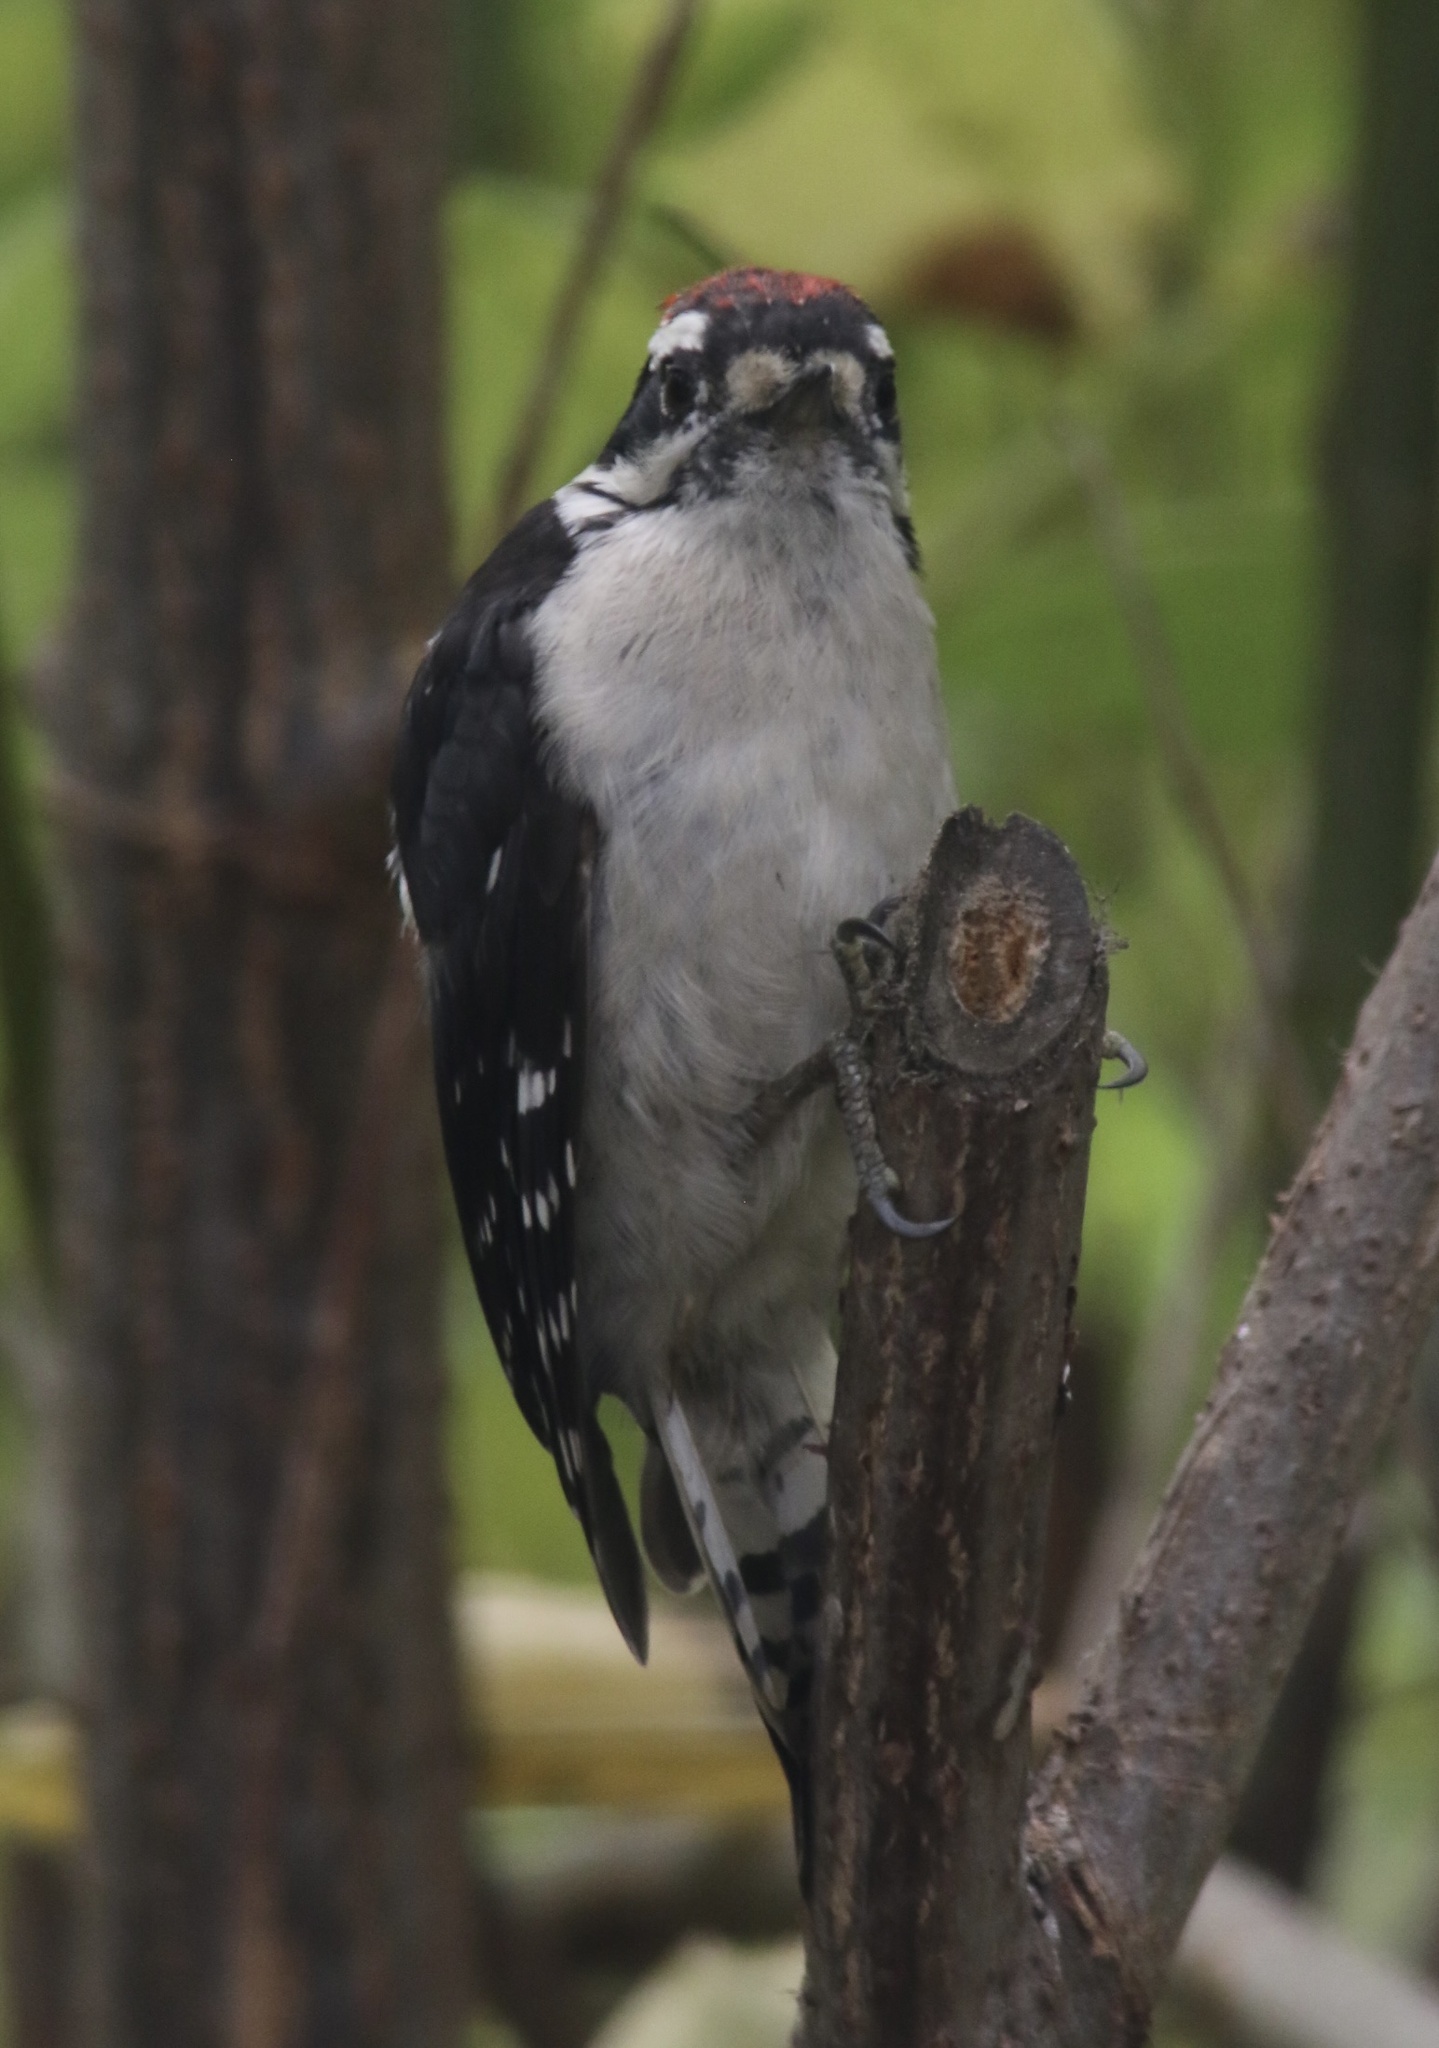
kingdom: Animalia
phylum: Chordata
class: Aves
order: Piciformes
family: Picidae
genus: Dryobates
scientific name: Dryobates pubescens
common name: Downy woodpecker
